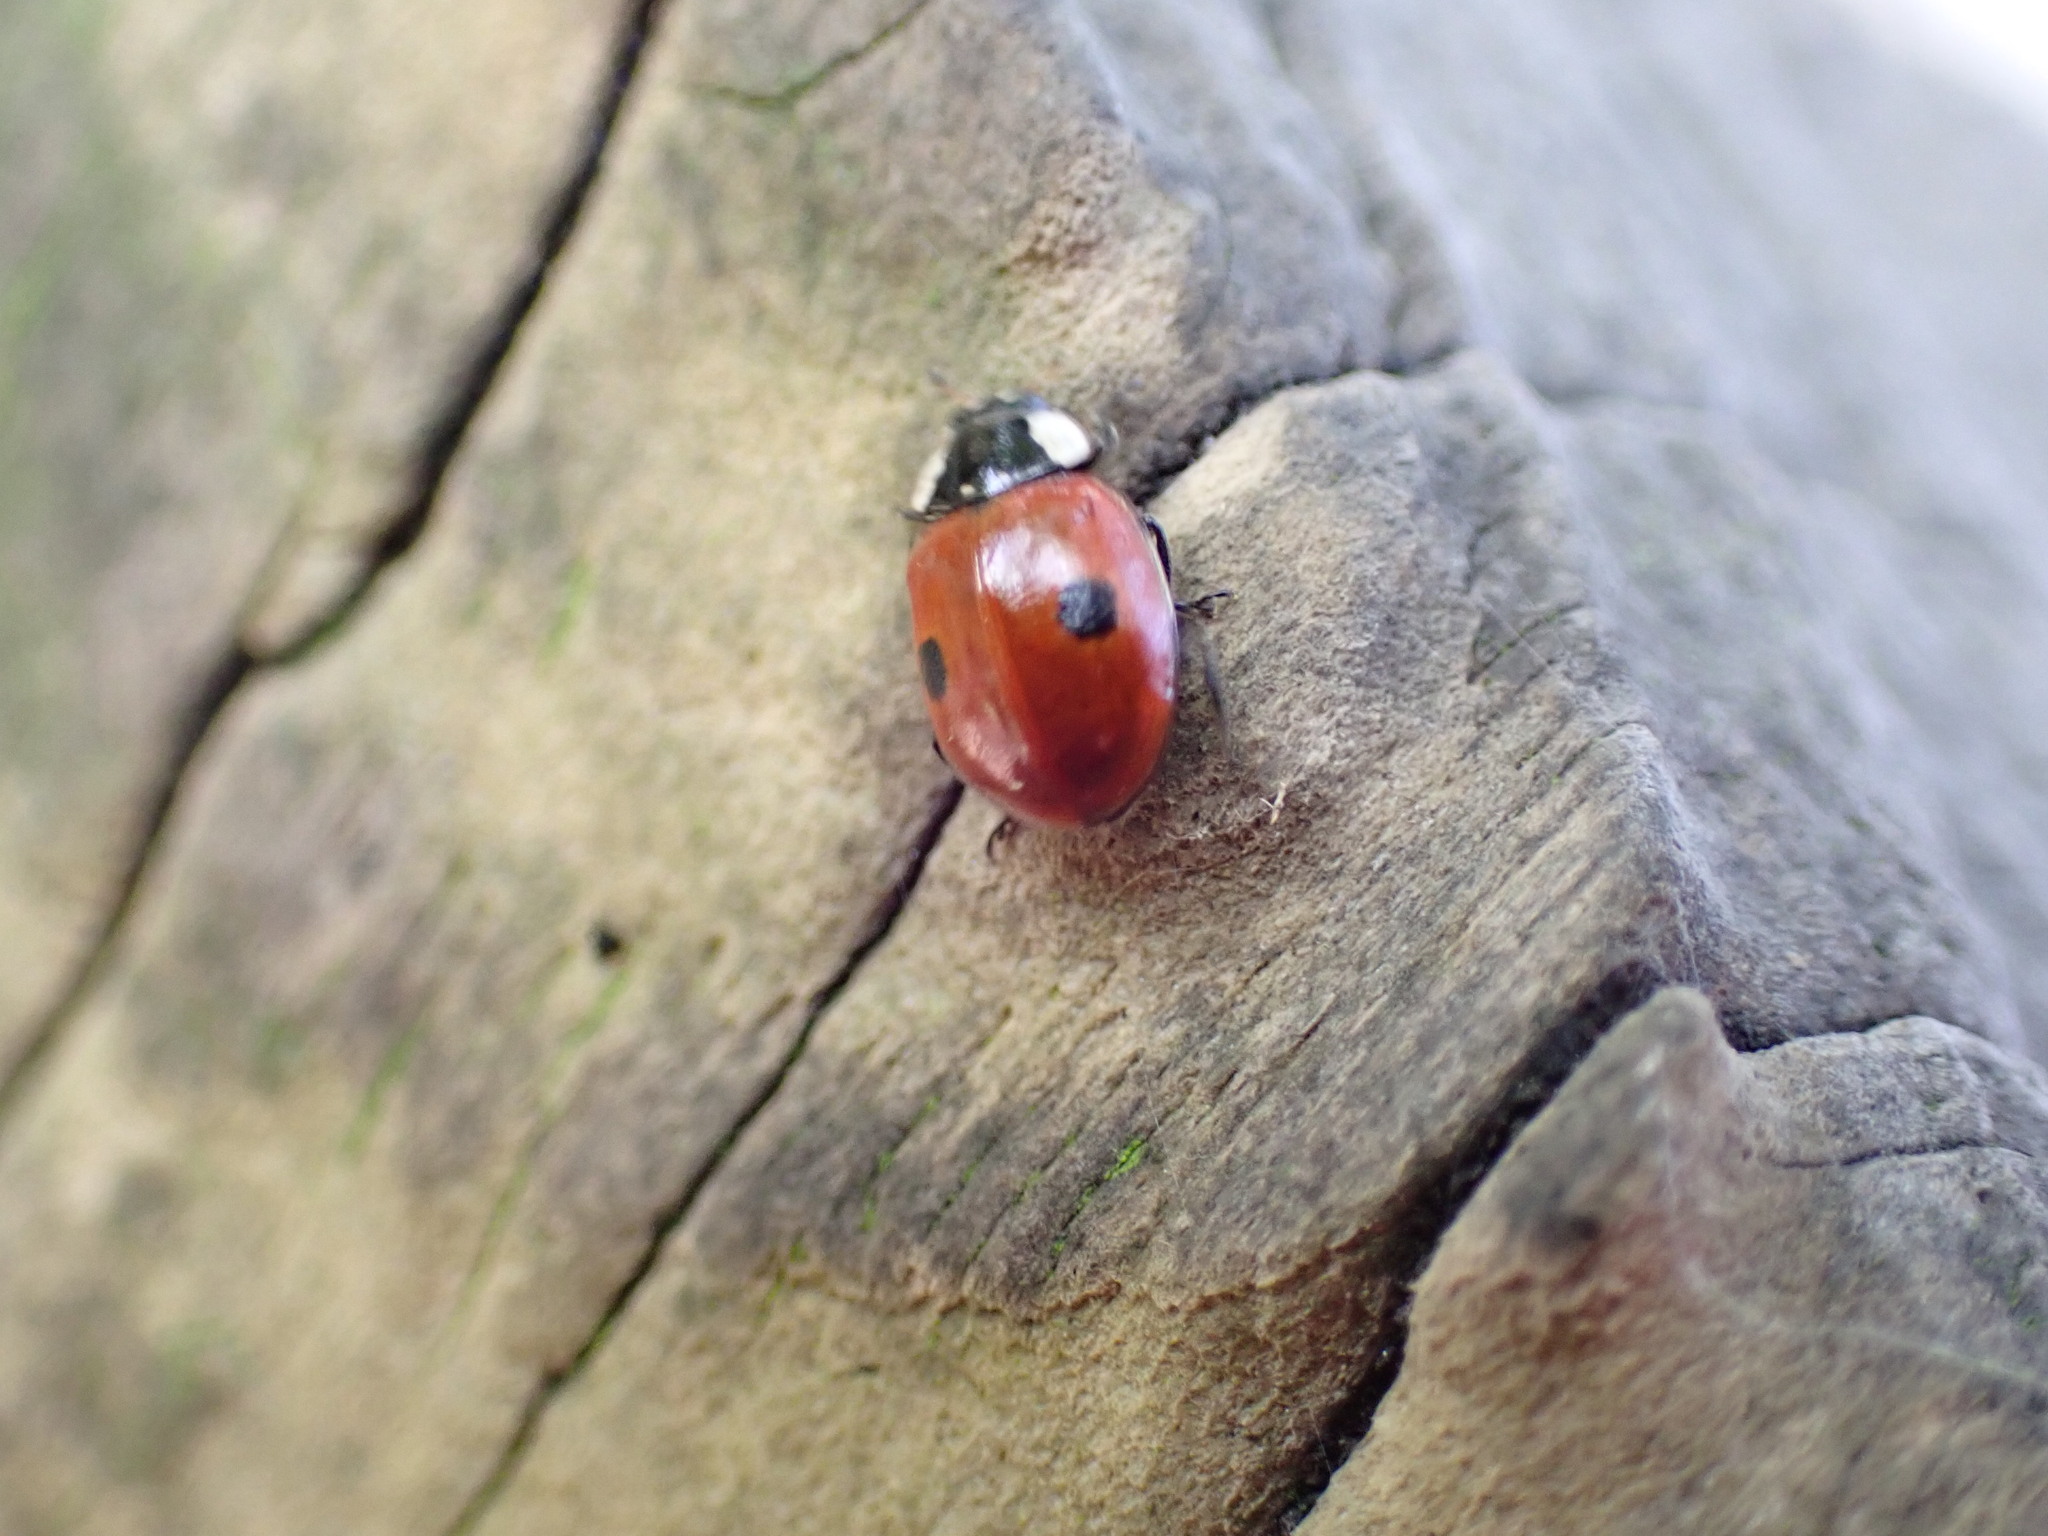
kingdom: Animalia
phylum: Arthropoda
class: Insecta
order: Coleoptera
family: Coccinellidae
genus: Adalia
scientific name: Adalia bipunctata
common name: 2-spot ladybird
